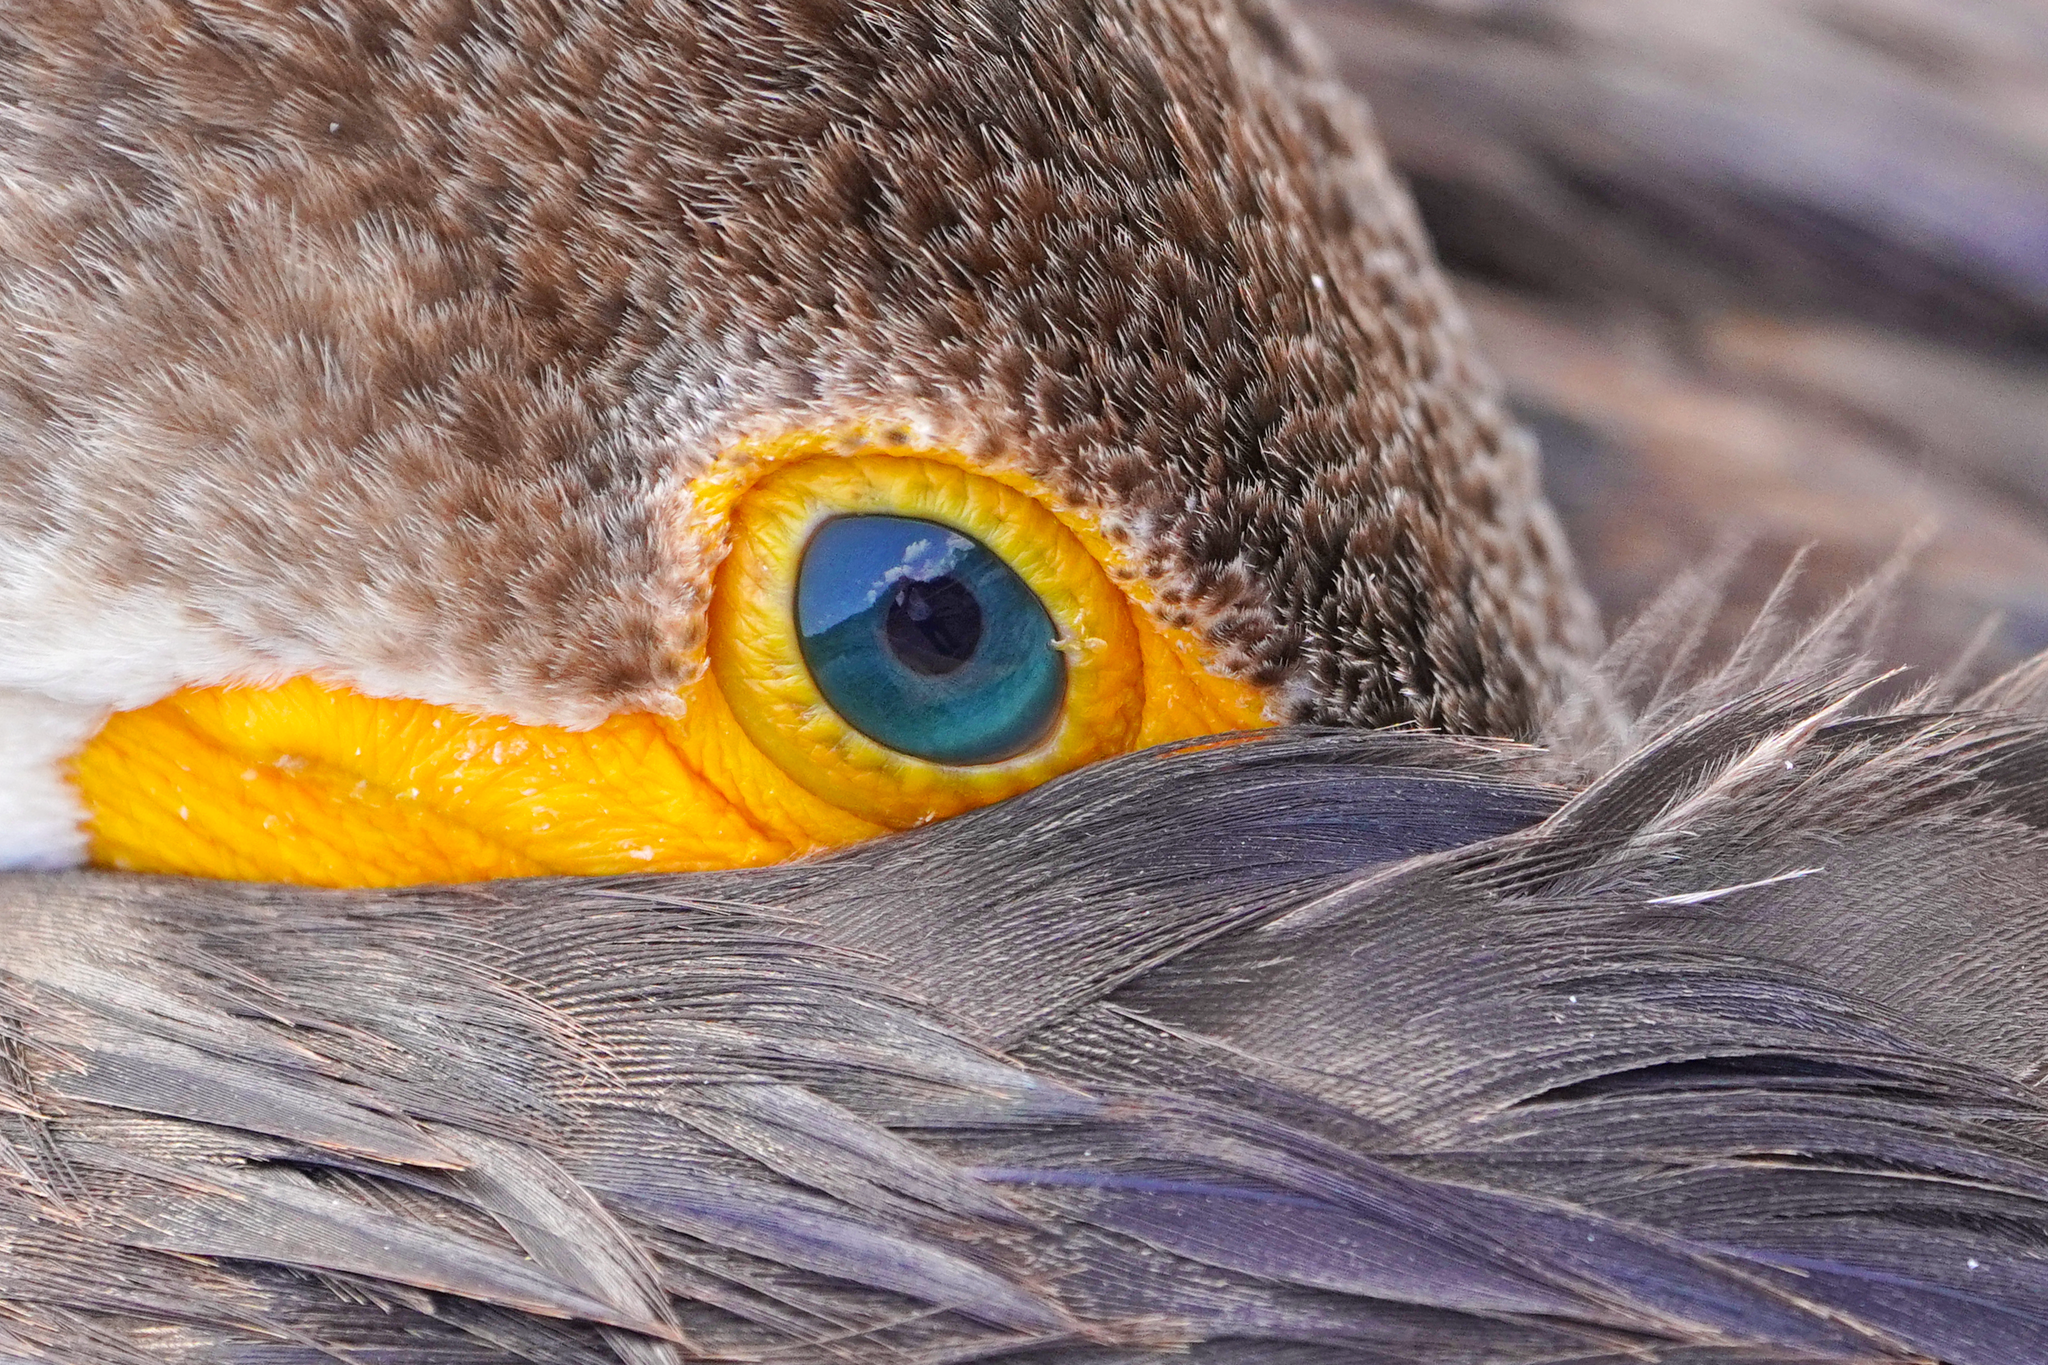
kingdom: Animalia
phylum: Chordata
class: Aves
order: Suliformes
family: Phalacrocoracidae
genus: Phalacrocorax
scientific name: Phalacrocorax auritus
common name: Double-crested cormorant
